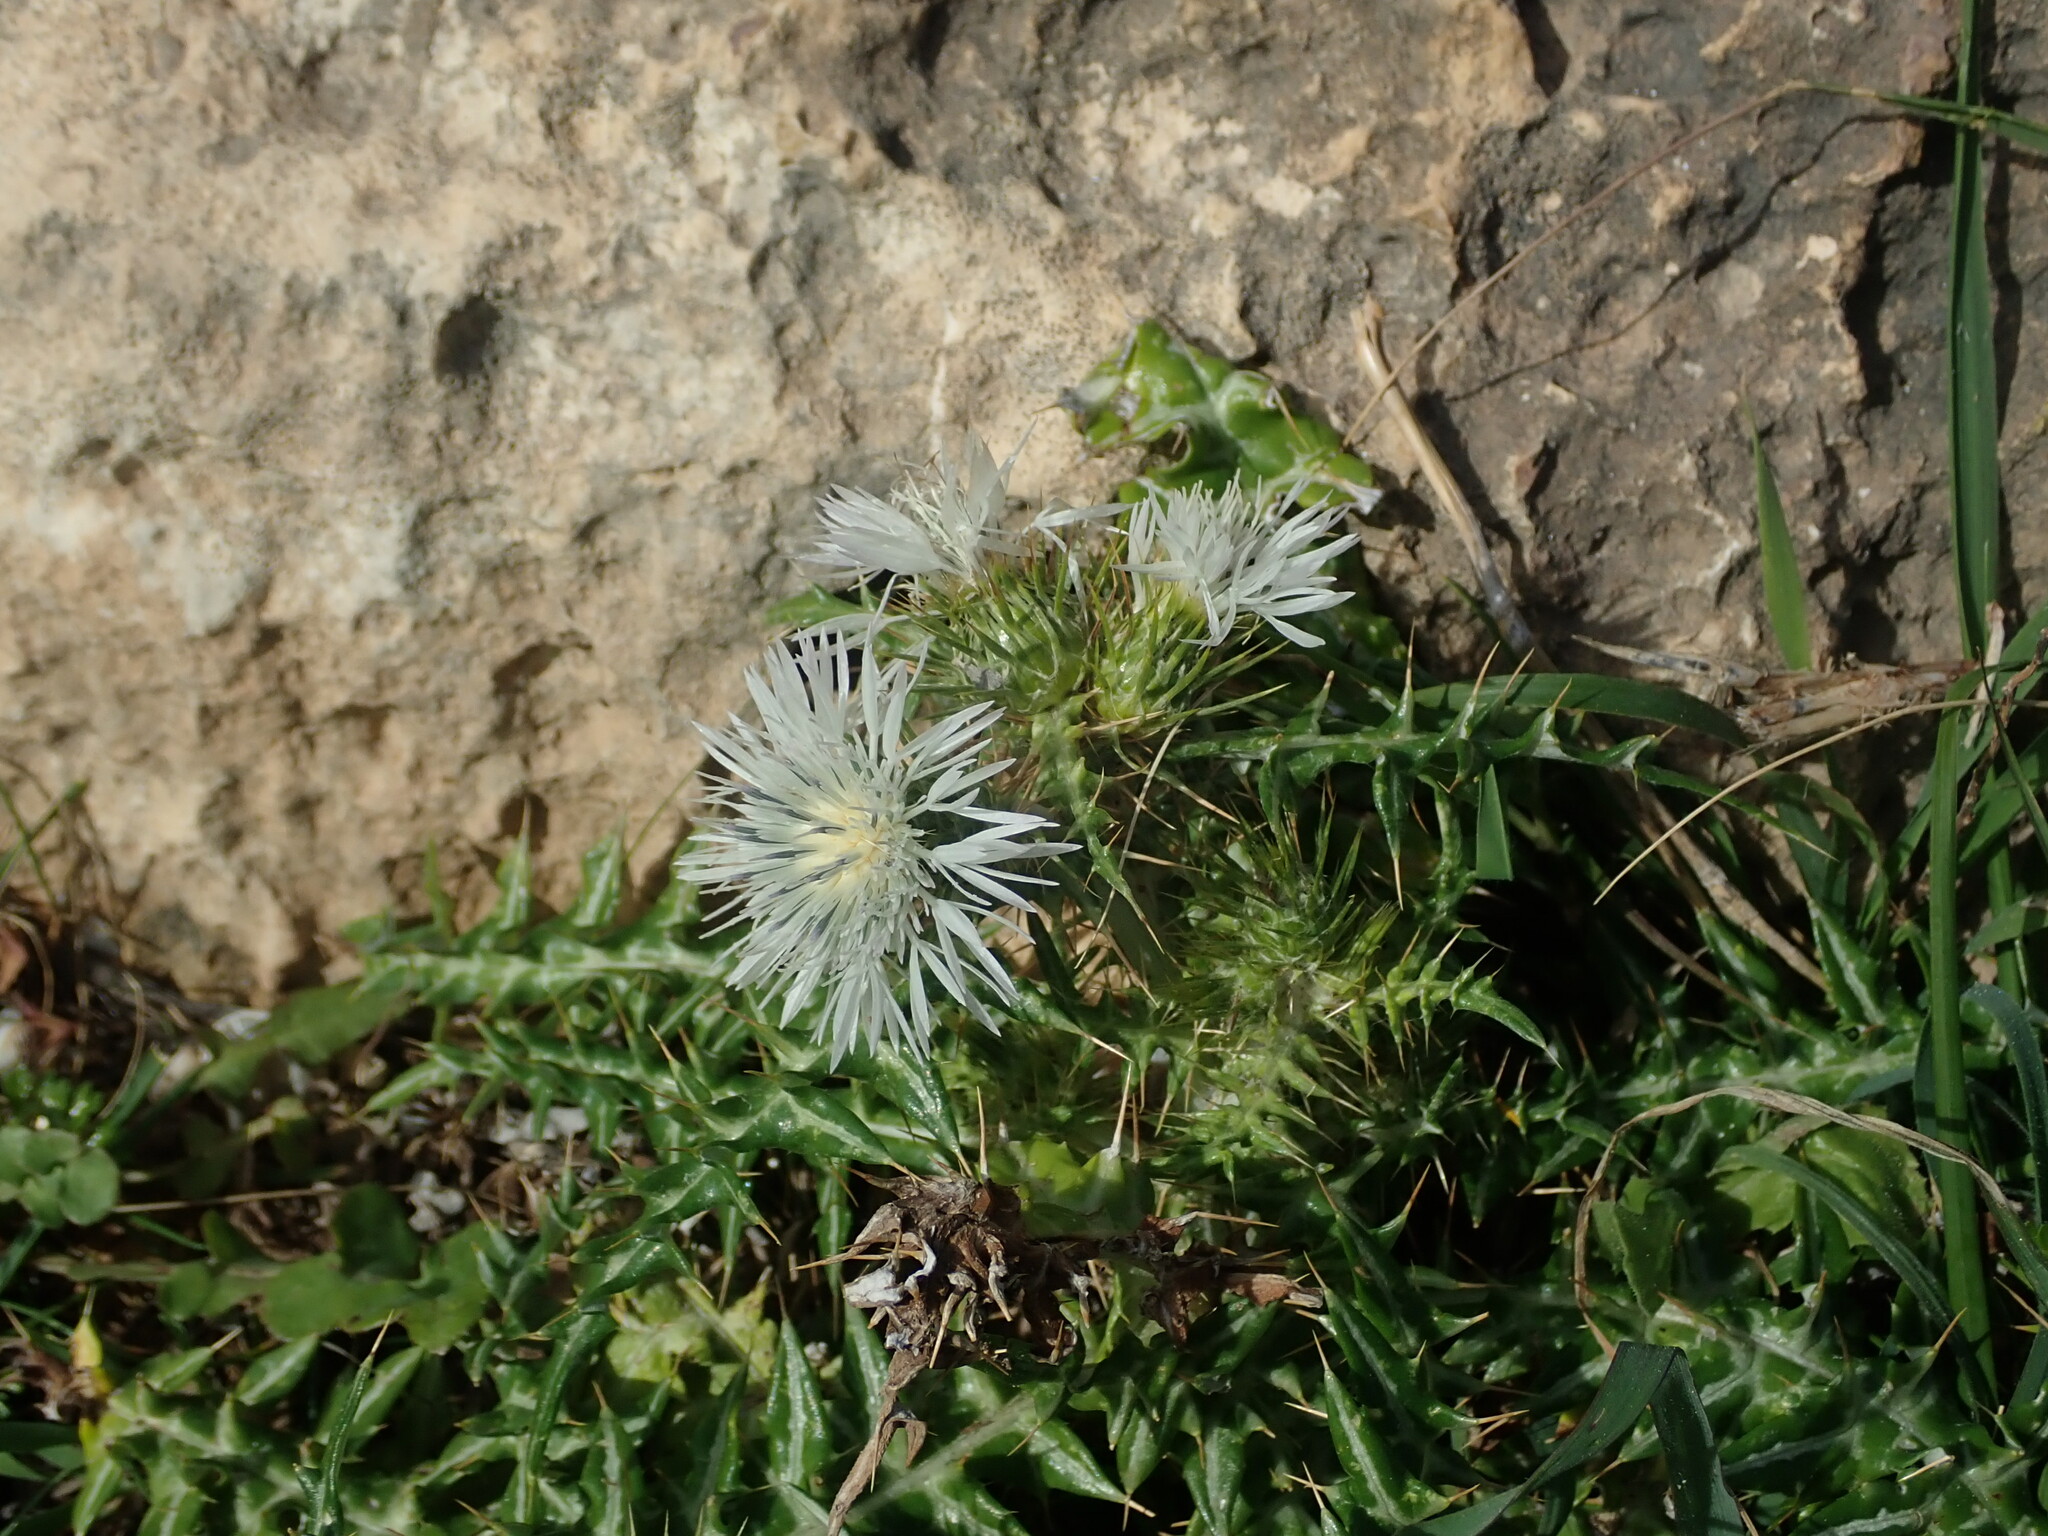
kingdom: Plantae
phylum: Tracheophyta
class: Magnoliopsida
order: Asterales
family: Asteraceae
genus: Galactites
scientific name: Galactites tomentosa
